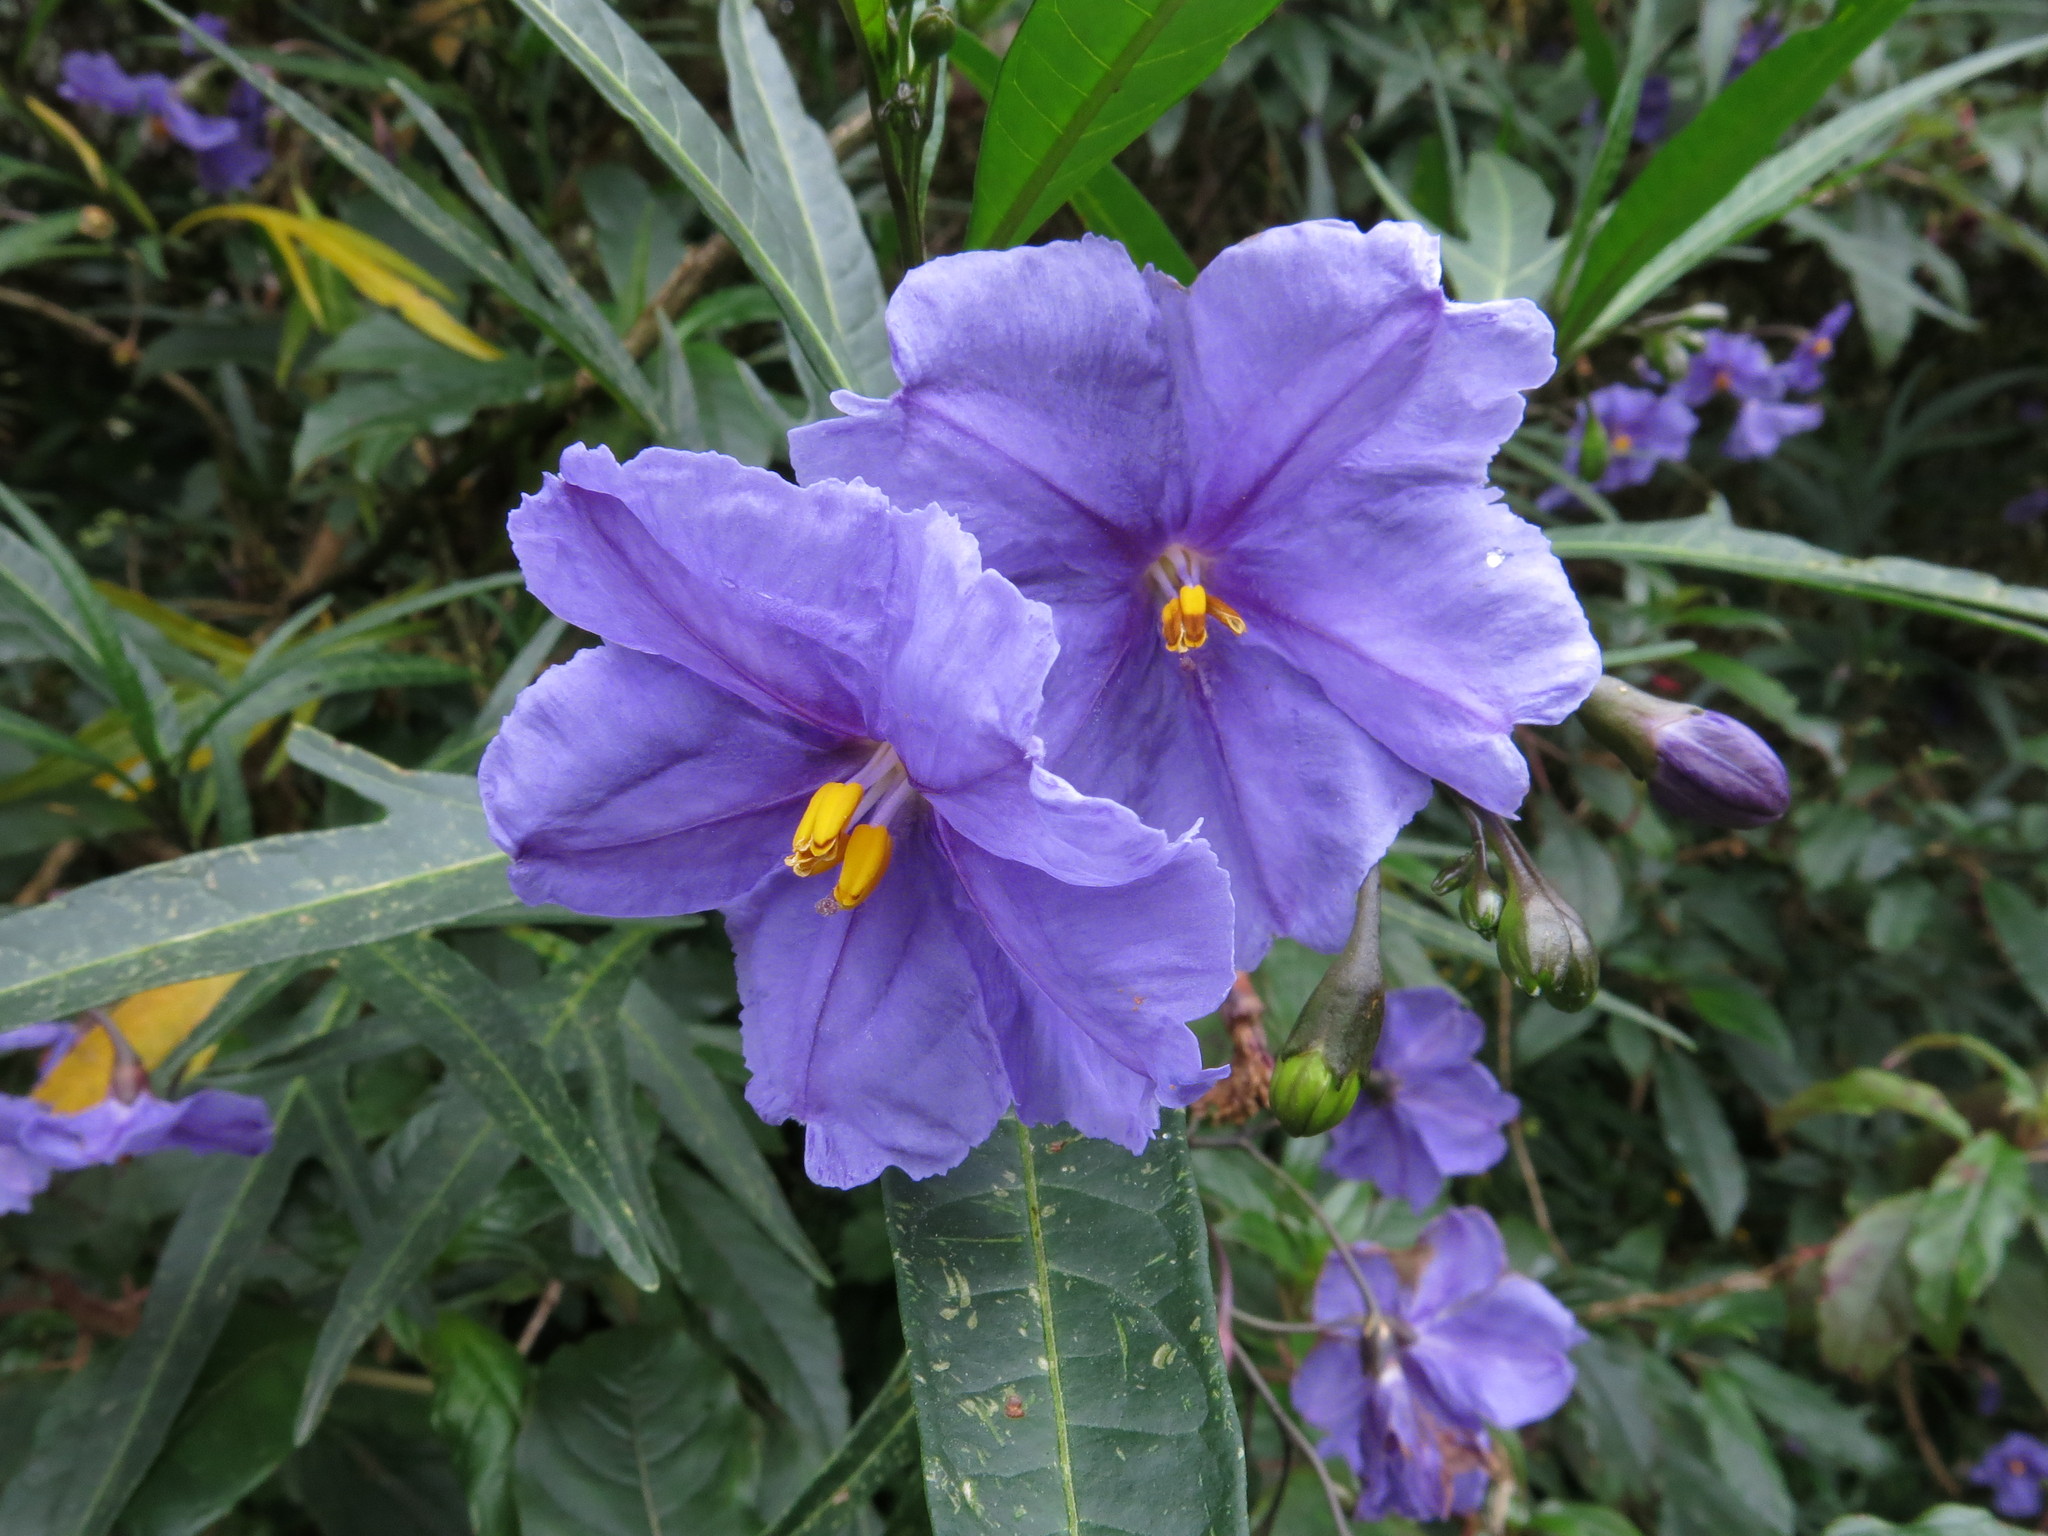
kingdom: Plantae
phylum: Tracheophyta
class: Magnoliopsida
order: Solanales
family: Solanaceae
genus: Solanum
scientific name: Solanum laciniatum
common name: Kangaroo-apple
